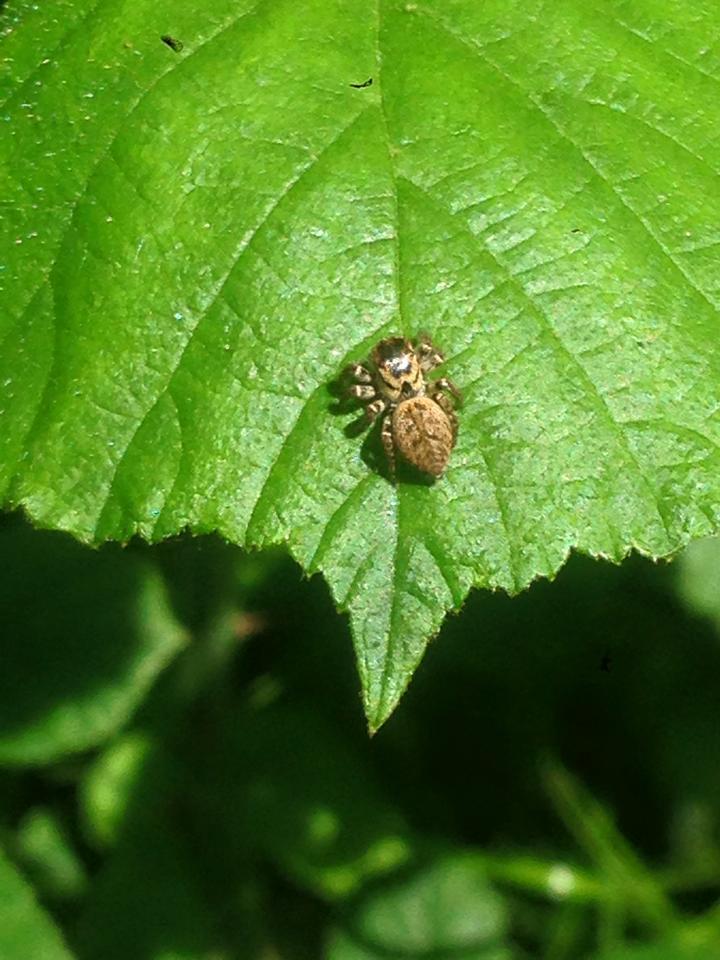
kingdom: Animalia
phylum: Arthropoda
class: Arachnida
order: Araneae
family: Salticidae
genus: Evarcha
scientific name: Evarcha falcata
